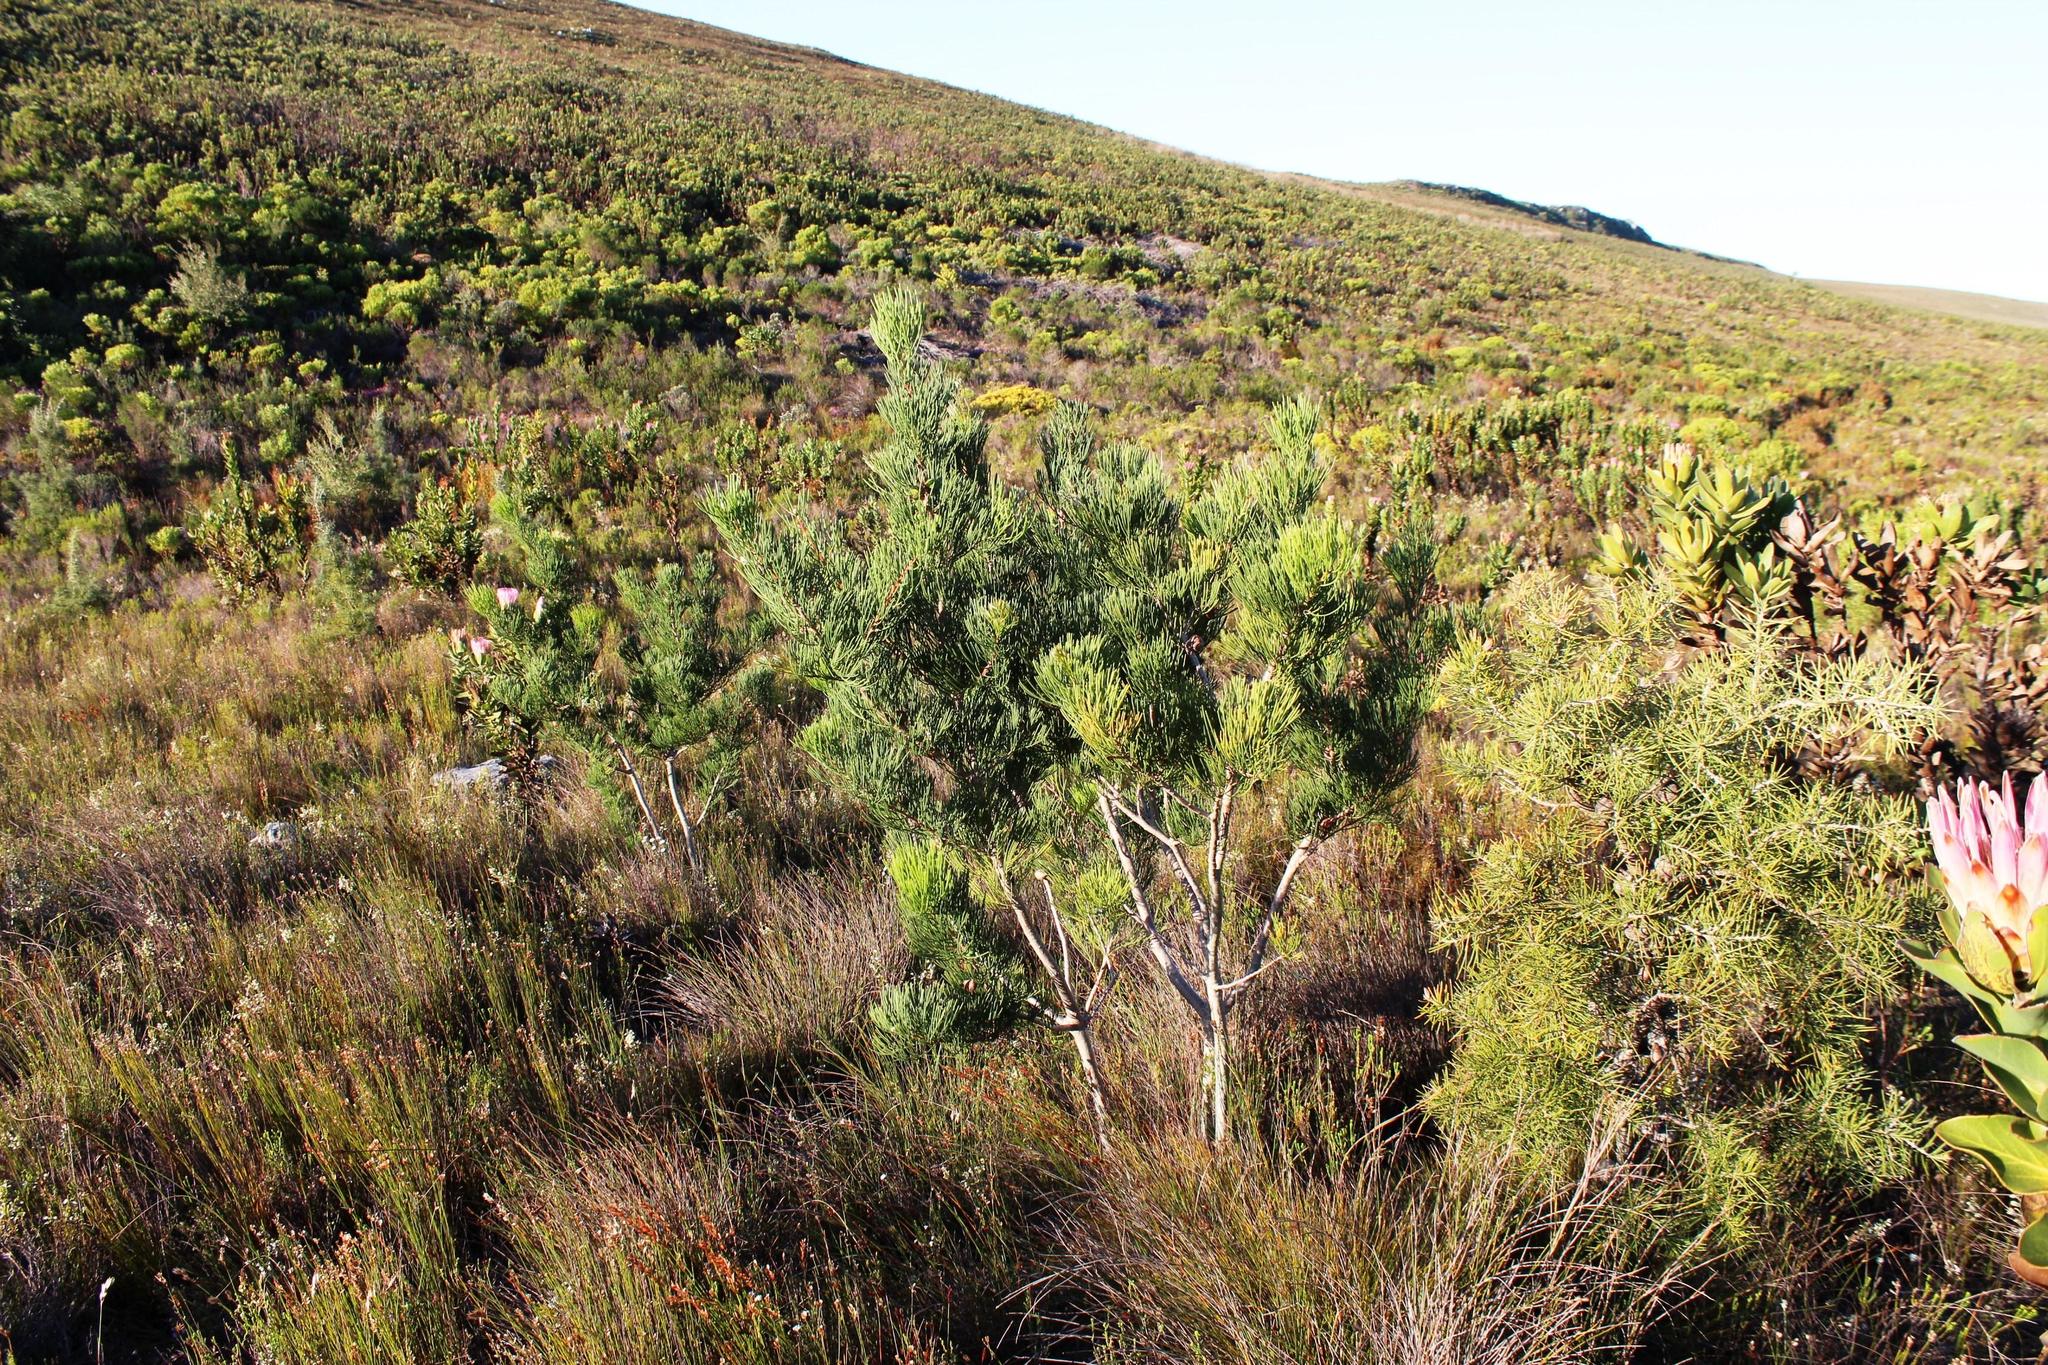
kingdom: Plantae
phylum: Tracheophyta
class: Magnoliopsida
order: Proteales
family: Proteaceae
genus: Hakea
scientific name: Hakea drupacea
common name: Sweet hakea
